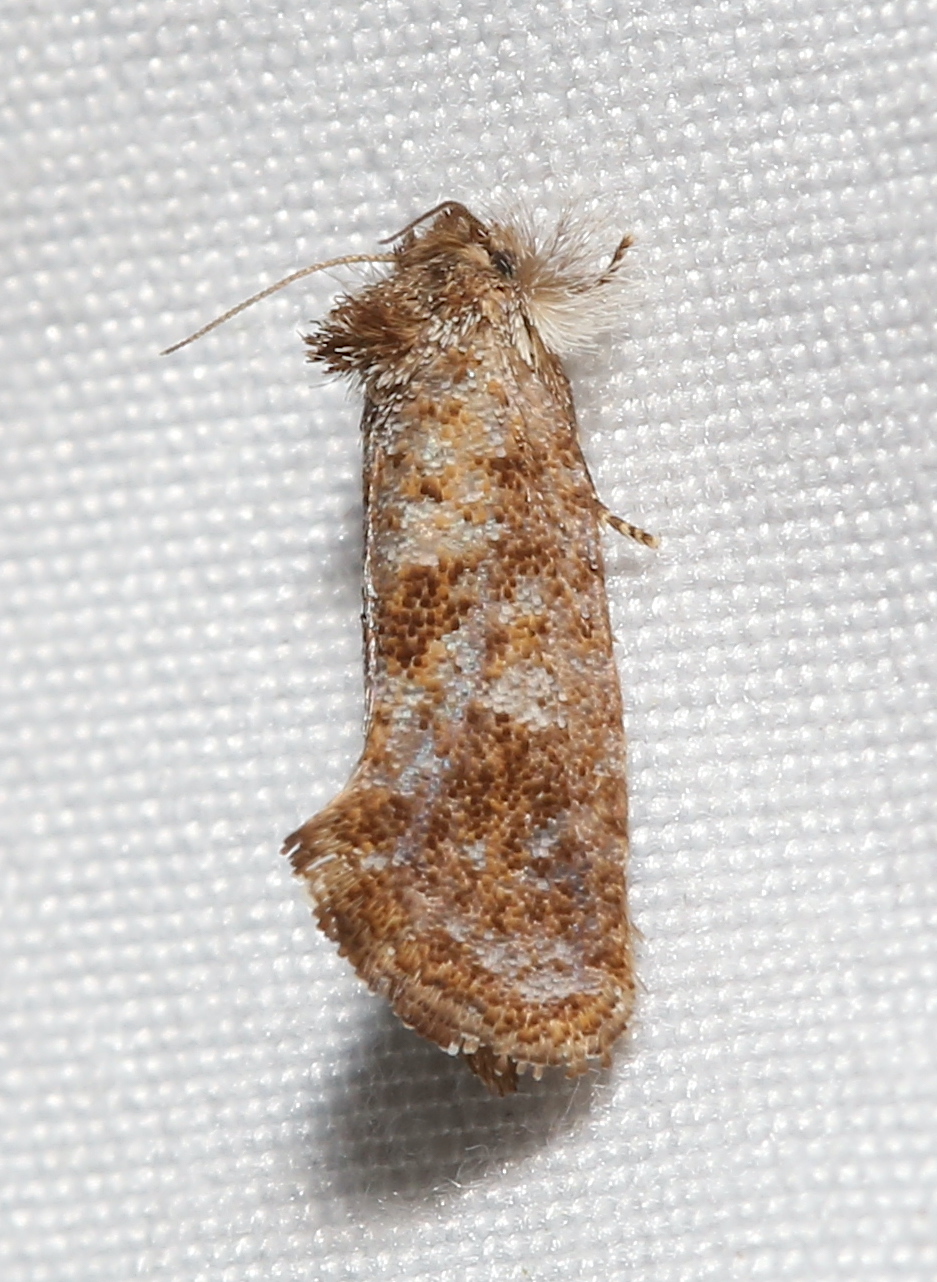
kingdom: Animalia
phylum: Arthropoda
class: Insecta
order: Lepidoptera
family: Tineidae
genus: Acrolophus
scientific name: Acrolophus panamae
